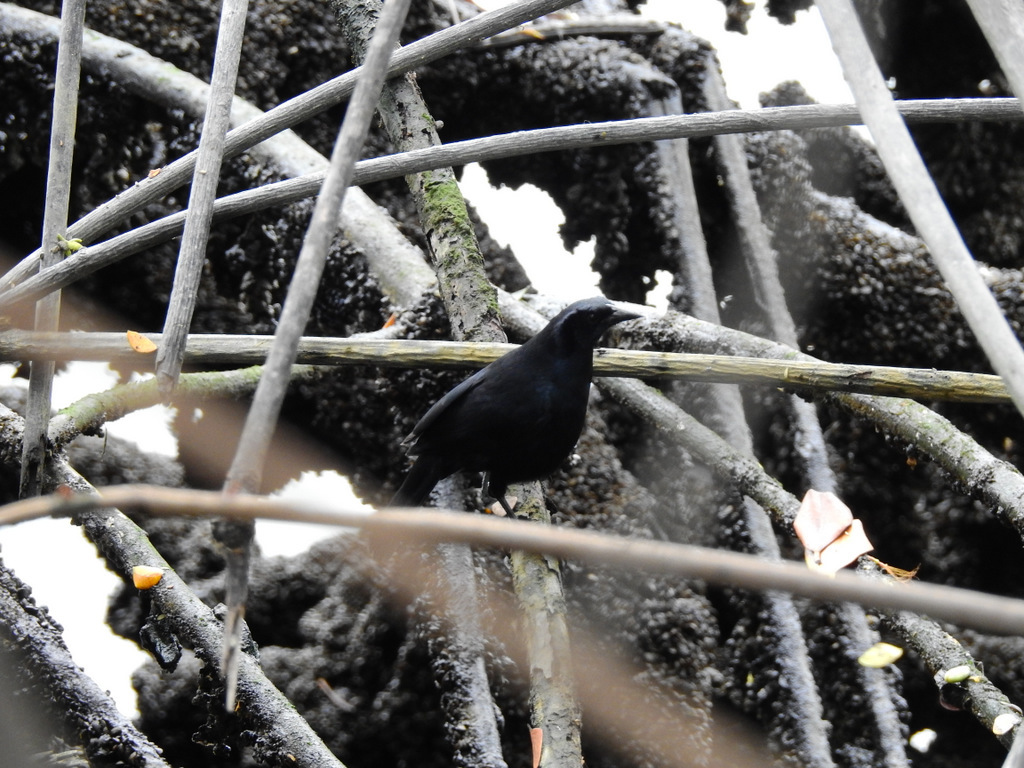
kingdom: Animalia
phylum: Chordata
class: Aves
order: Passeriformes
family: Icteridae
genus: Dives
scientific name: Dives warczewiczi
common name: Scrub blackbird
